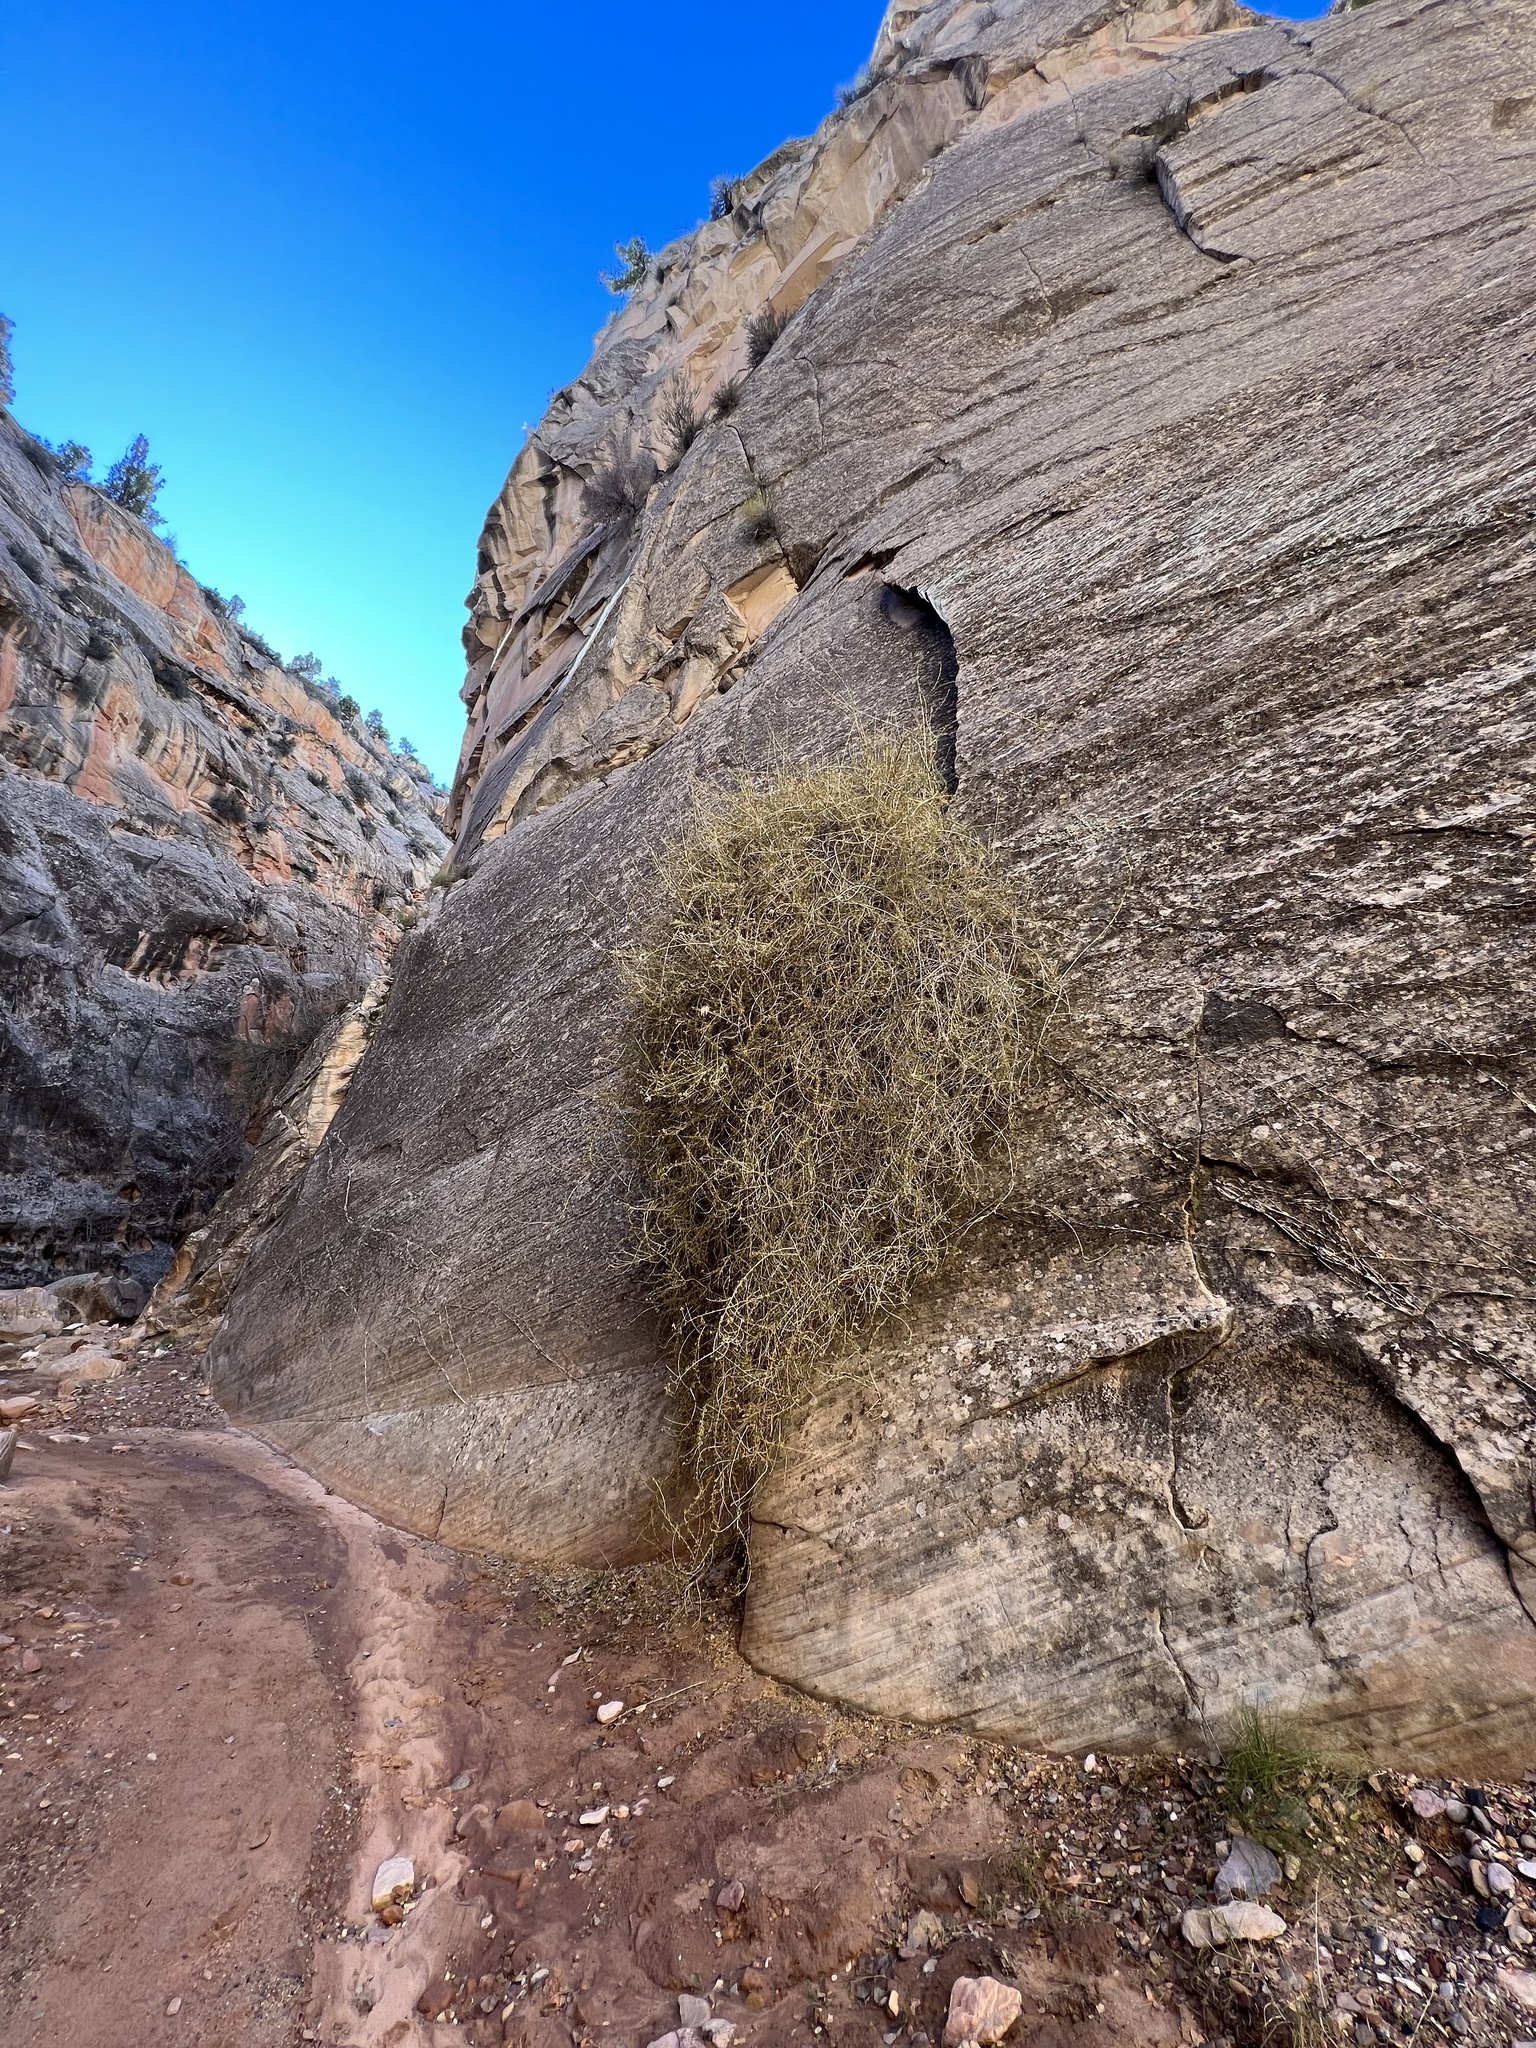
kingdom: Plantae
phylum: Tracheophyta
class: Magnoliopsida
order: Rosales
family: Rosaceae
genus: Fallugia
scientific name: Fallugia paradoxa
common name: Apache-plume
